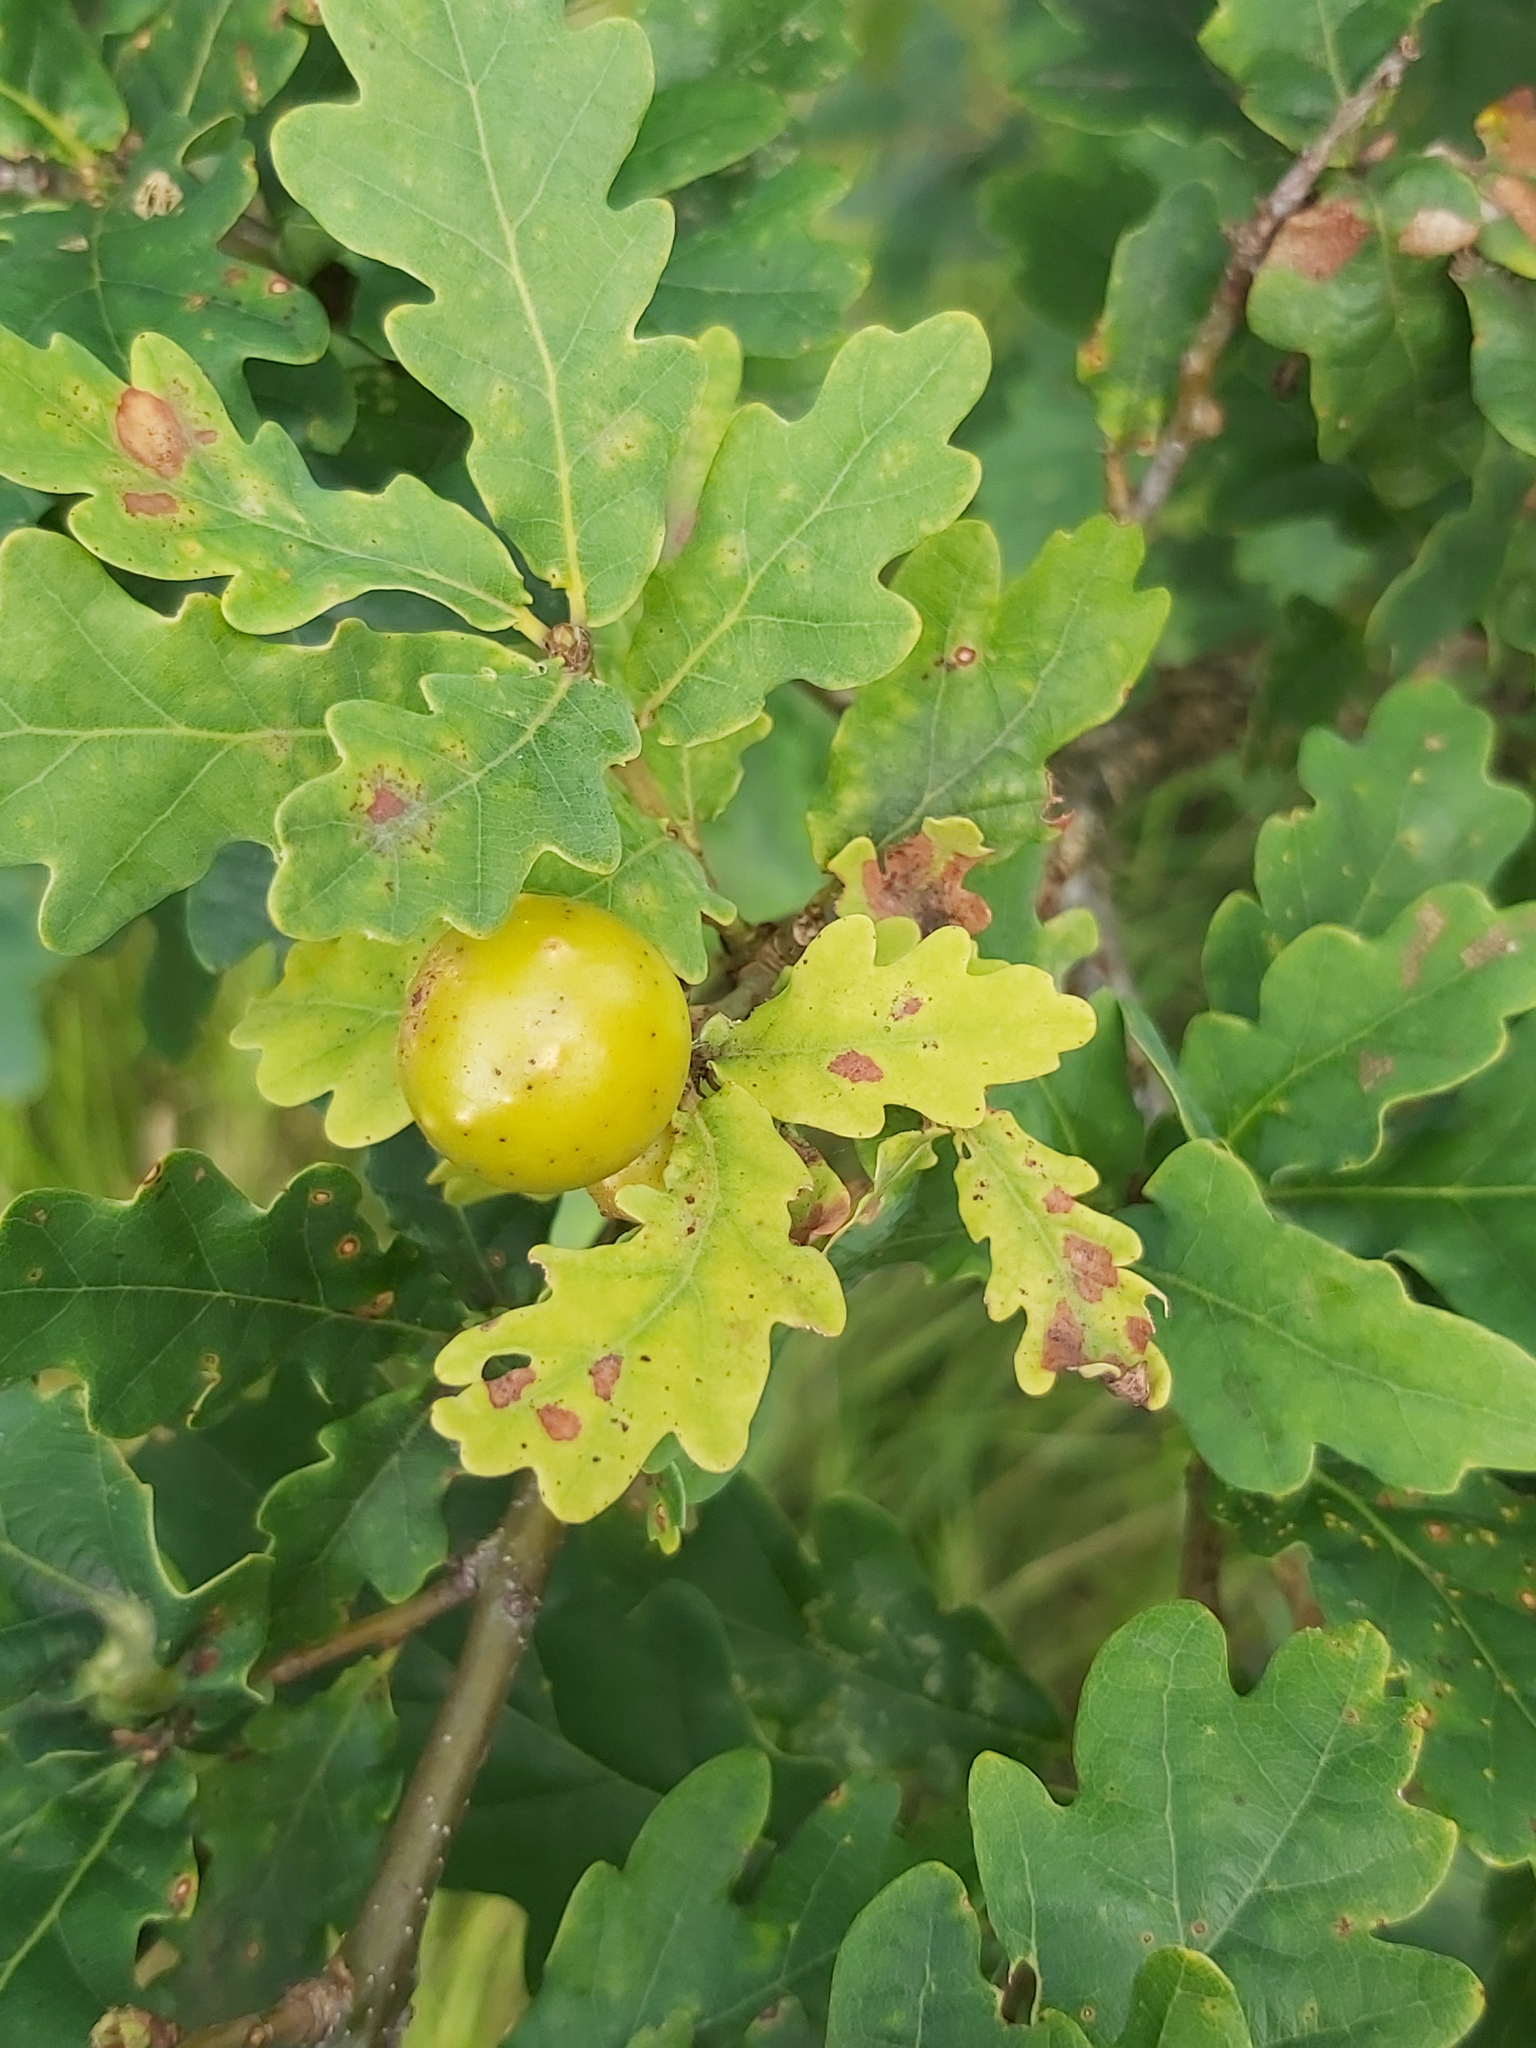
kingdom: Animalia
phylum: Arthropoda
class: Insecta
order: Hymenoptera
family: Cynipidae
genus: Andricus
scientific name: Andricus kollari
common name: Marble gall
